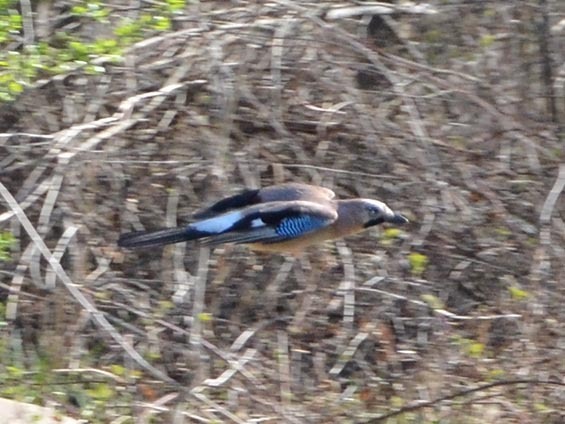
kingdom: Animalia
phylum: Chordata
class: Aves
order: Passeriformes
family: Corvidae
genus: Garrulus
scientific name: Garrulus glandarius
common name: Eurasian jay
